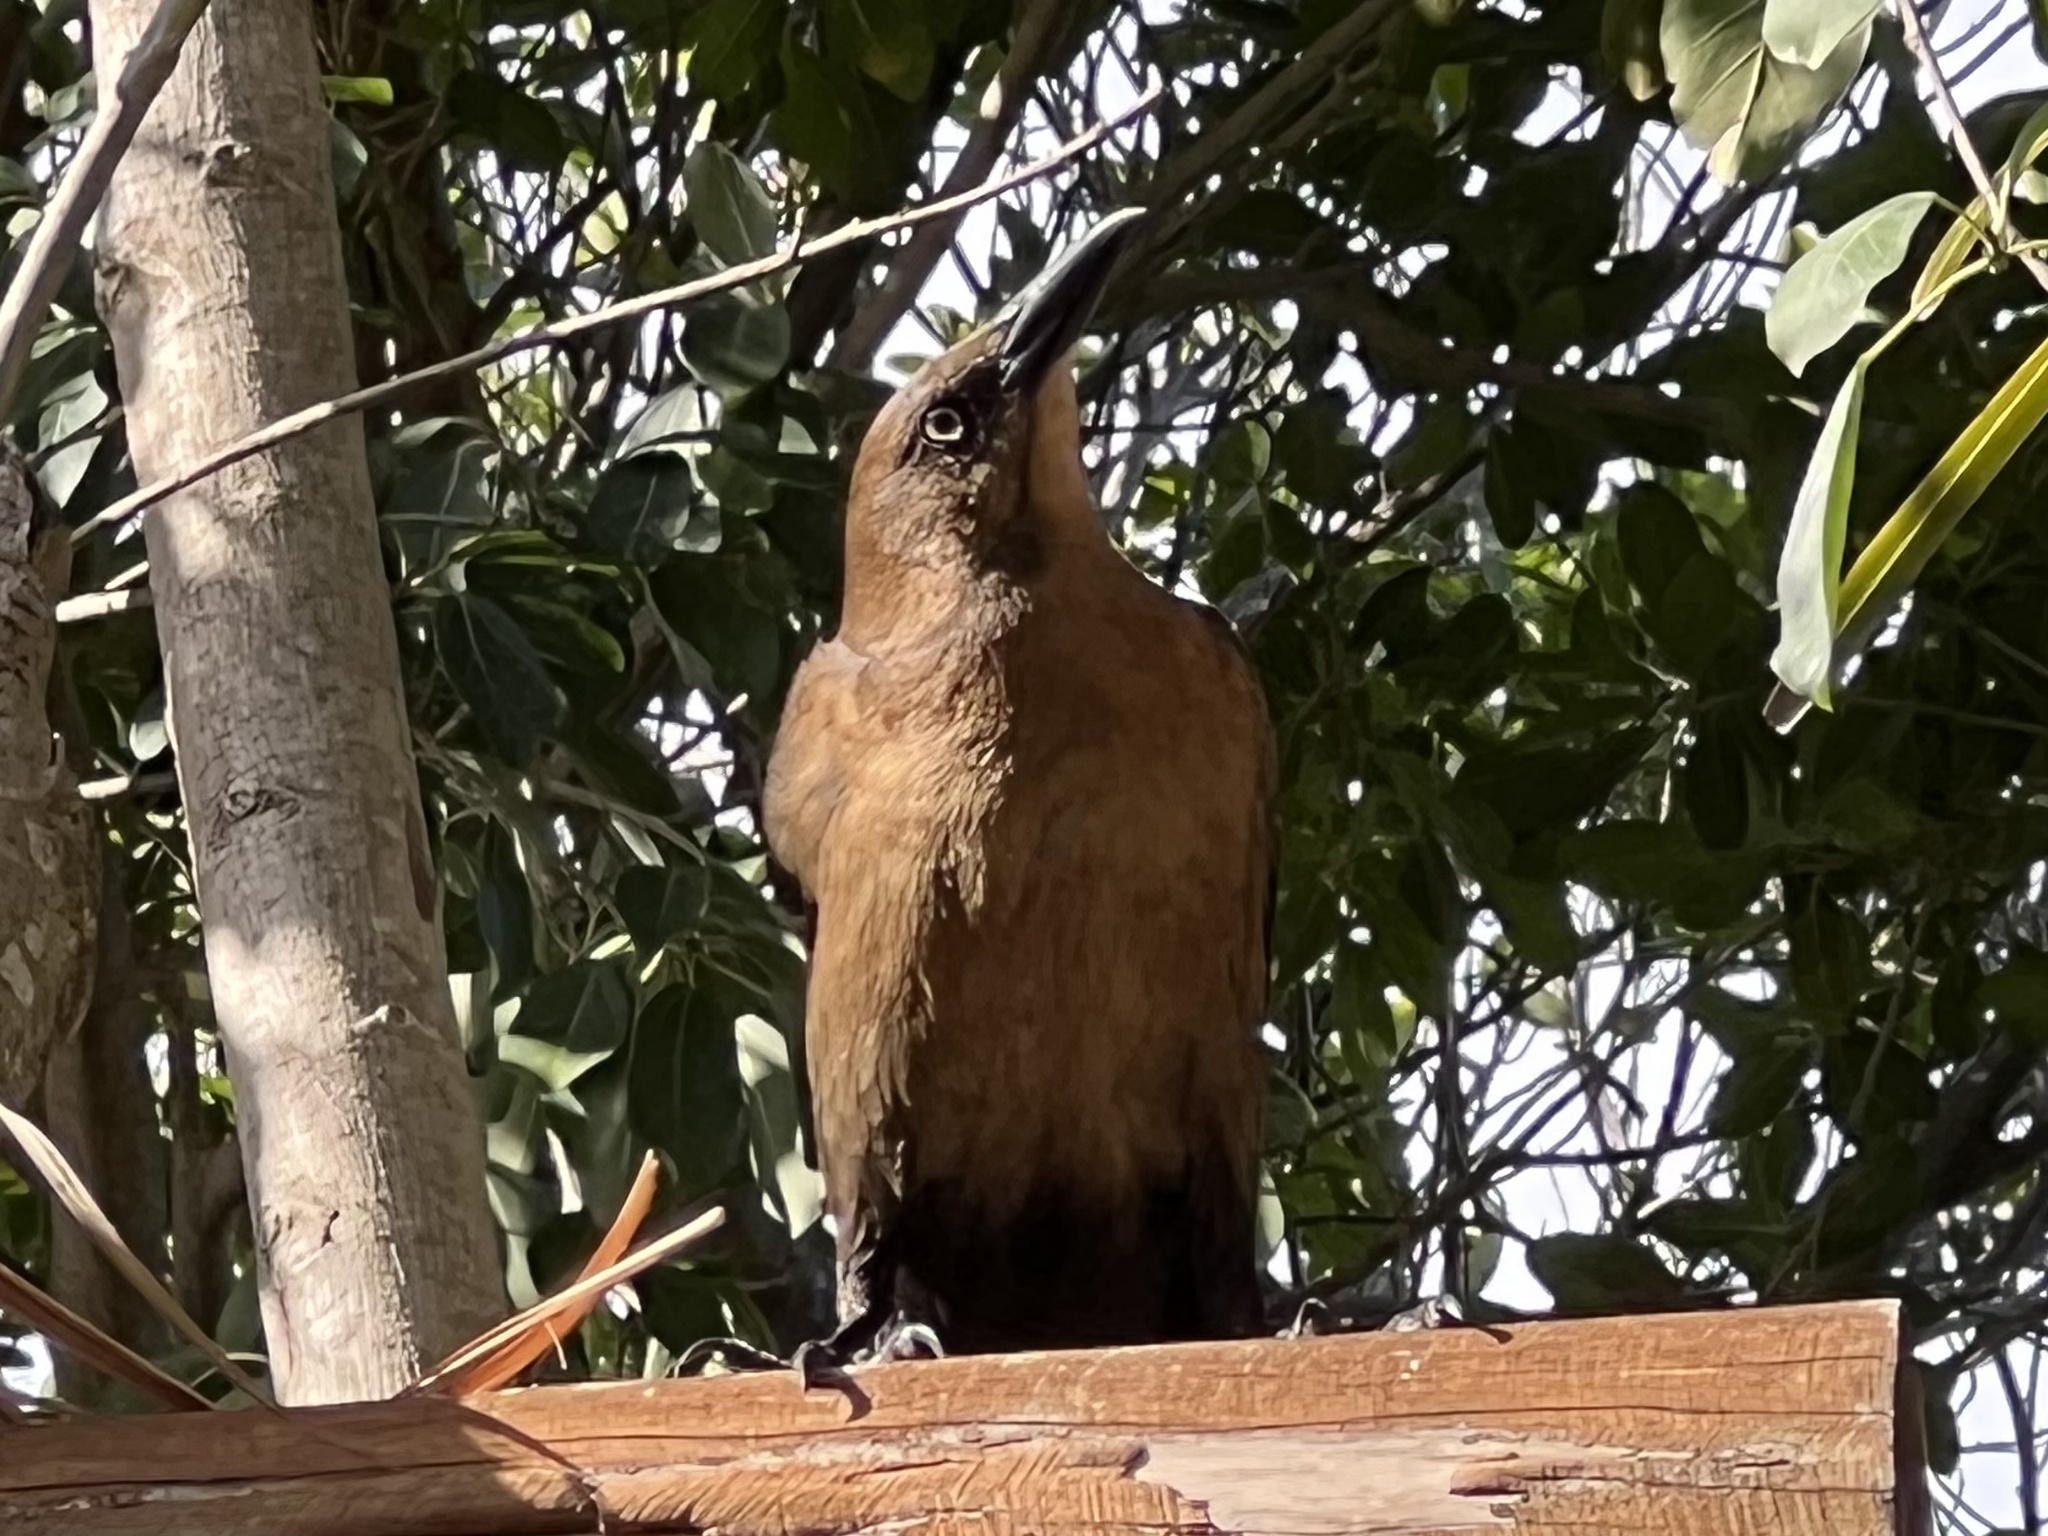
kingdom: Animalia
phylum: Chordata
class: Aves
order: Passeriformes
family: Icteridae
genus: Quiscalus
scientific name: Quiscalus mexicanus
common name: Great-tailed grackle
